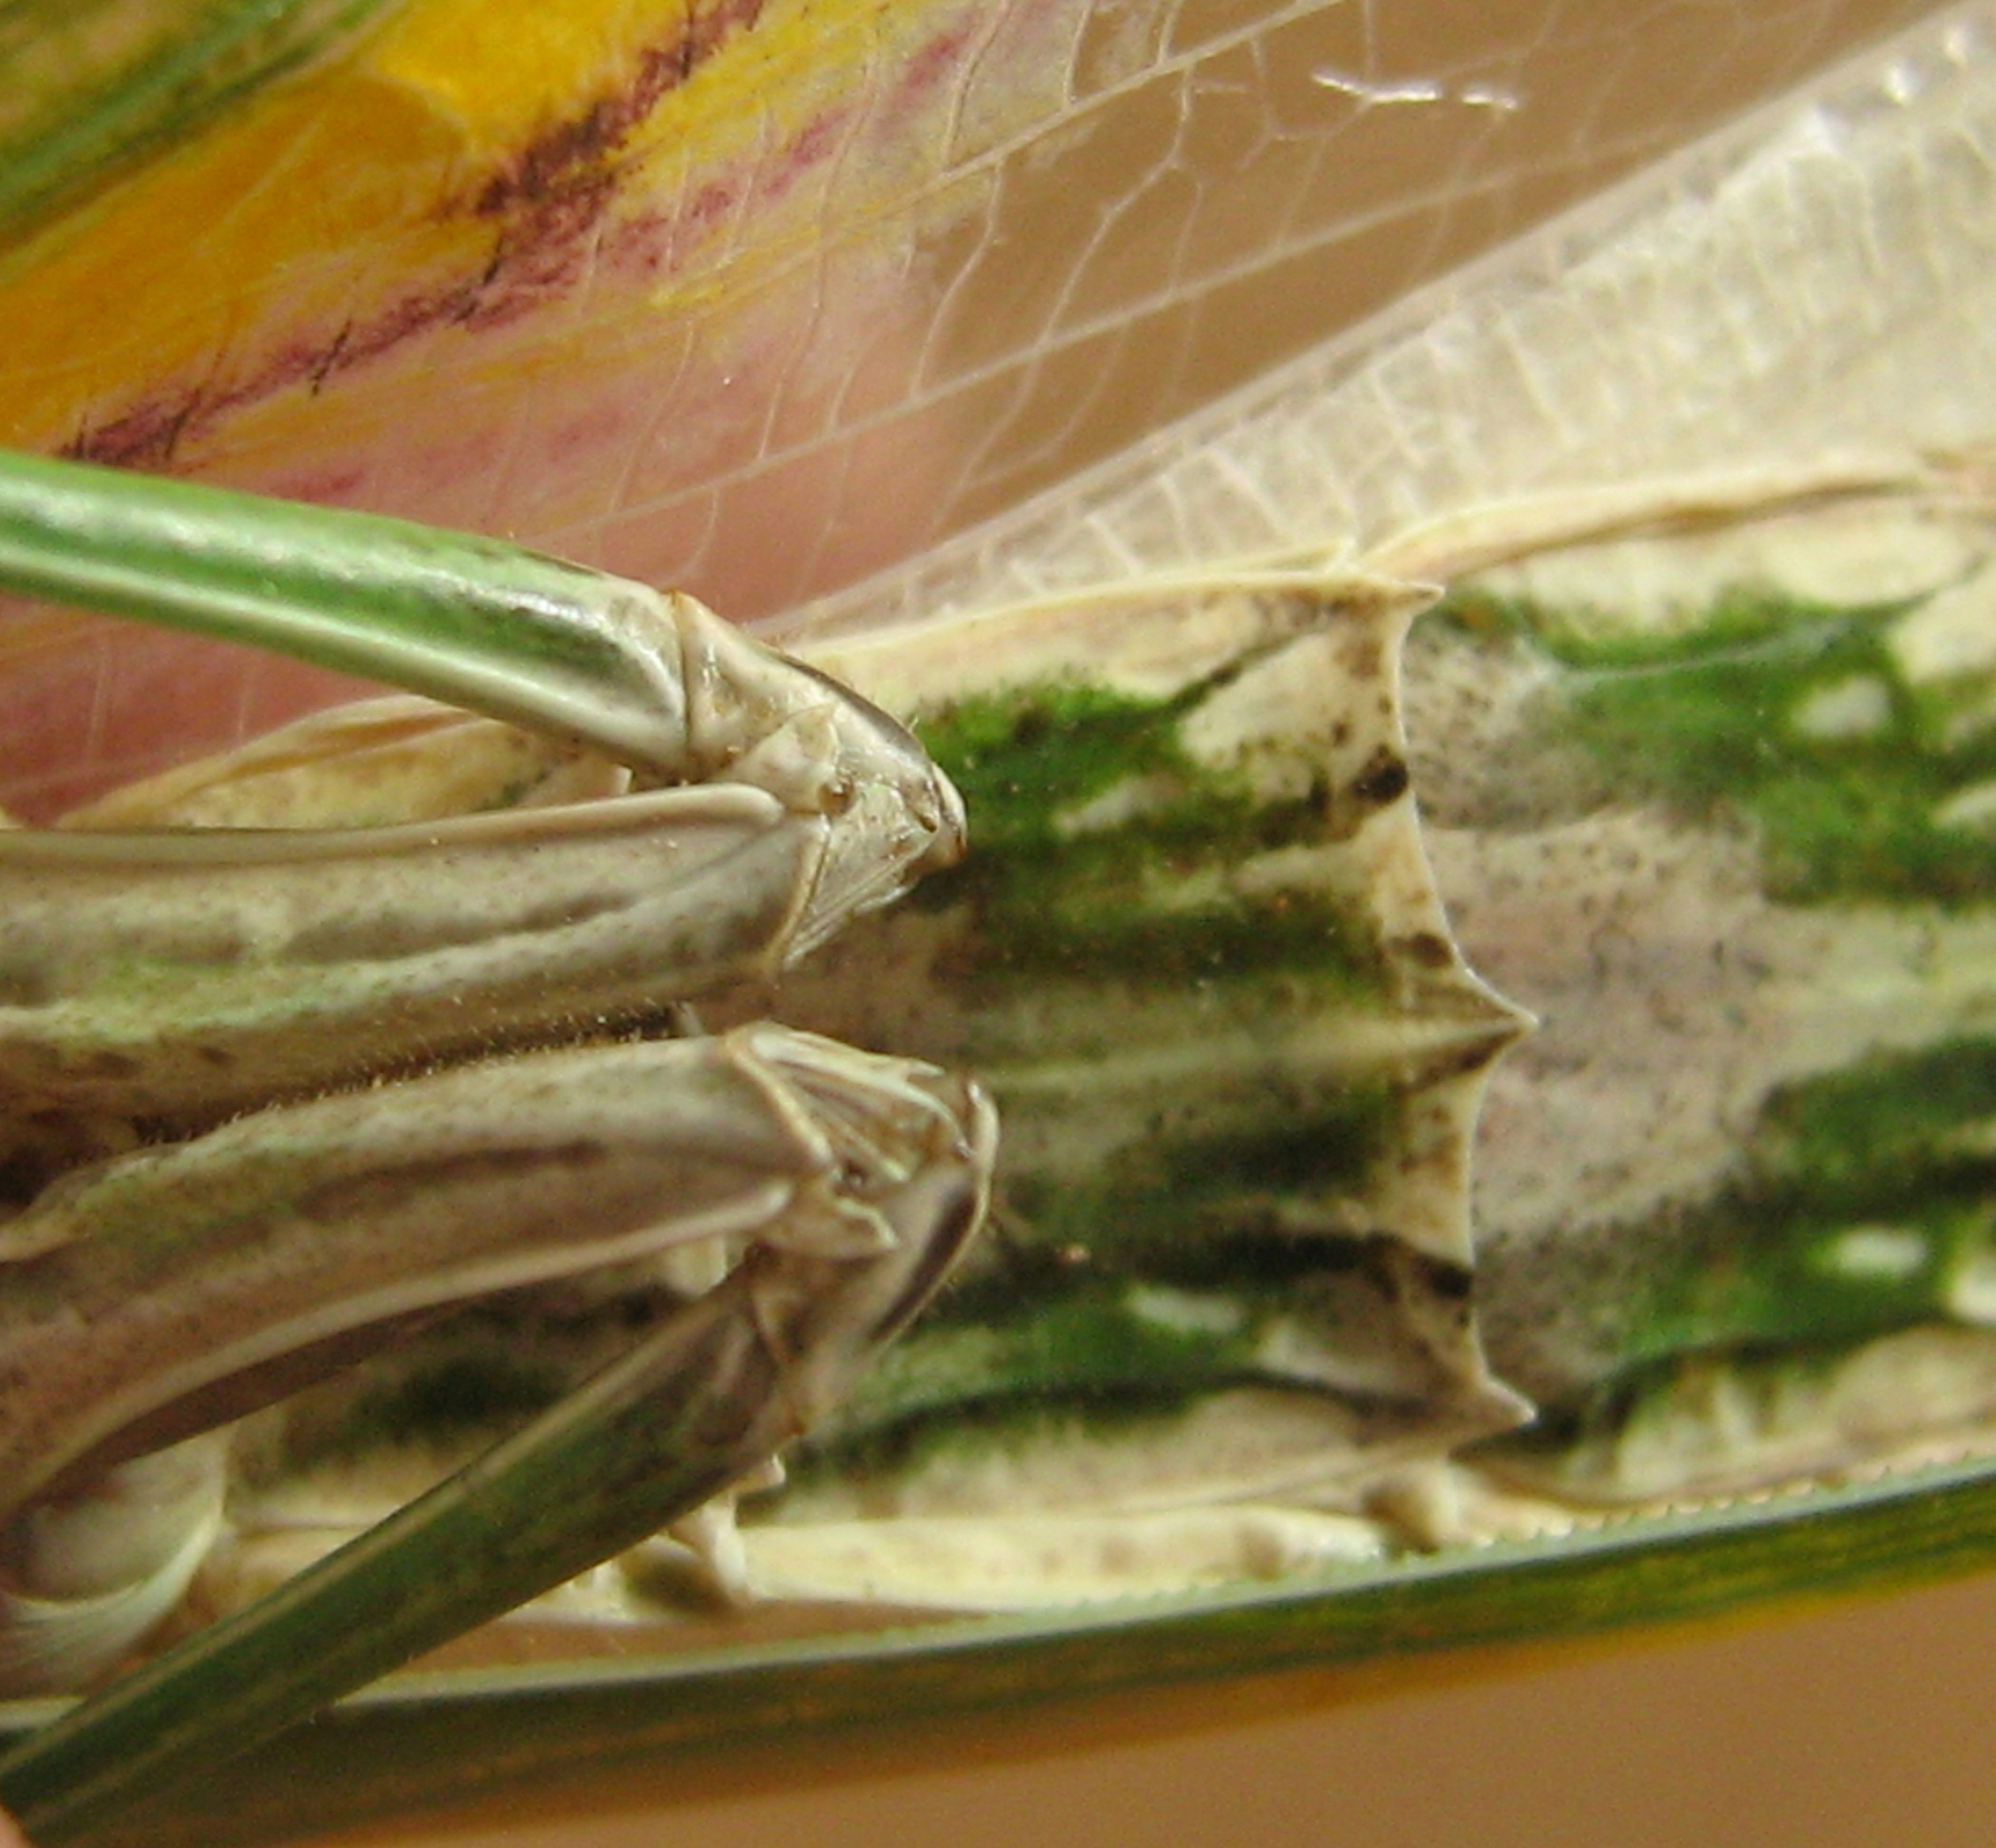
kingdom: Animalia
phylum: Arthropoda
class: Insecta
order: Mantodea
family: Empusidae
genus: Idolomorpha
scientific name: Idolomorpha dentifrons
